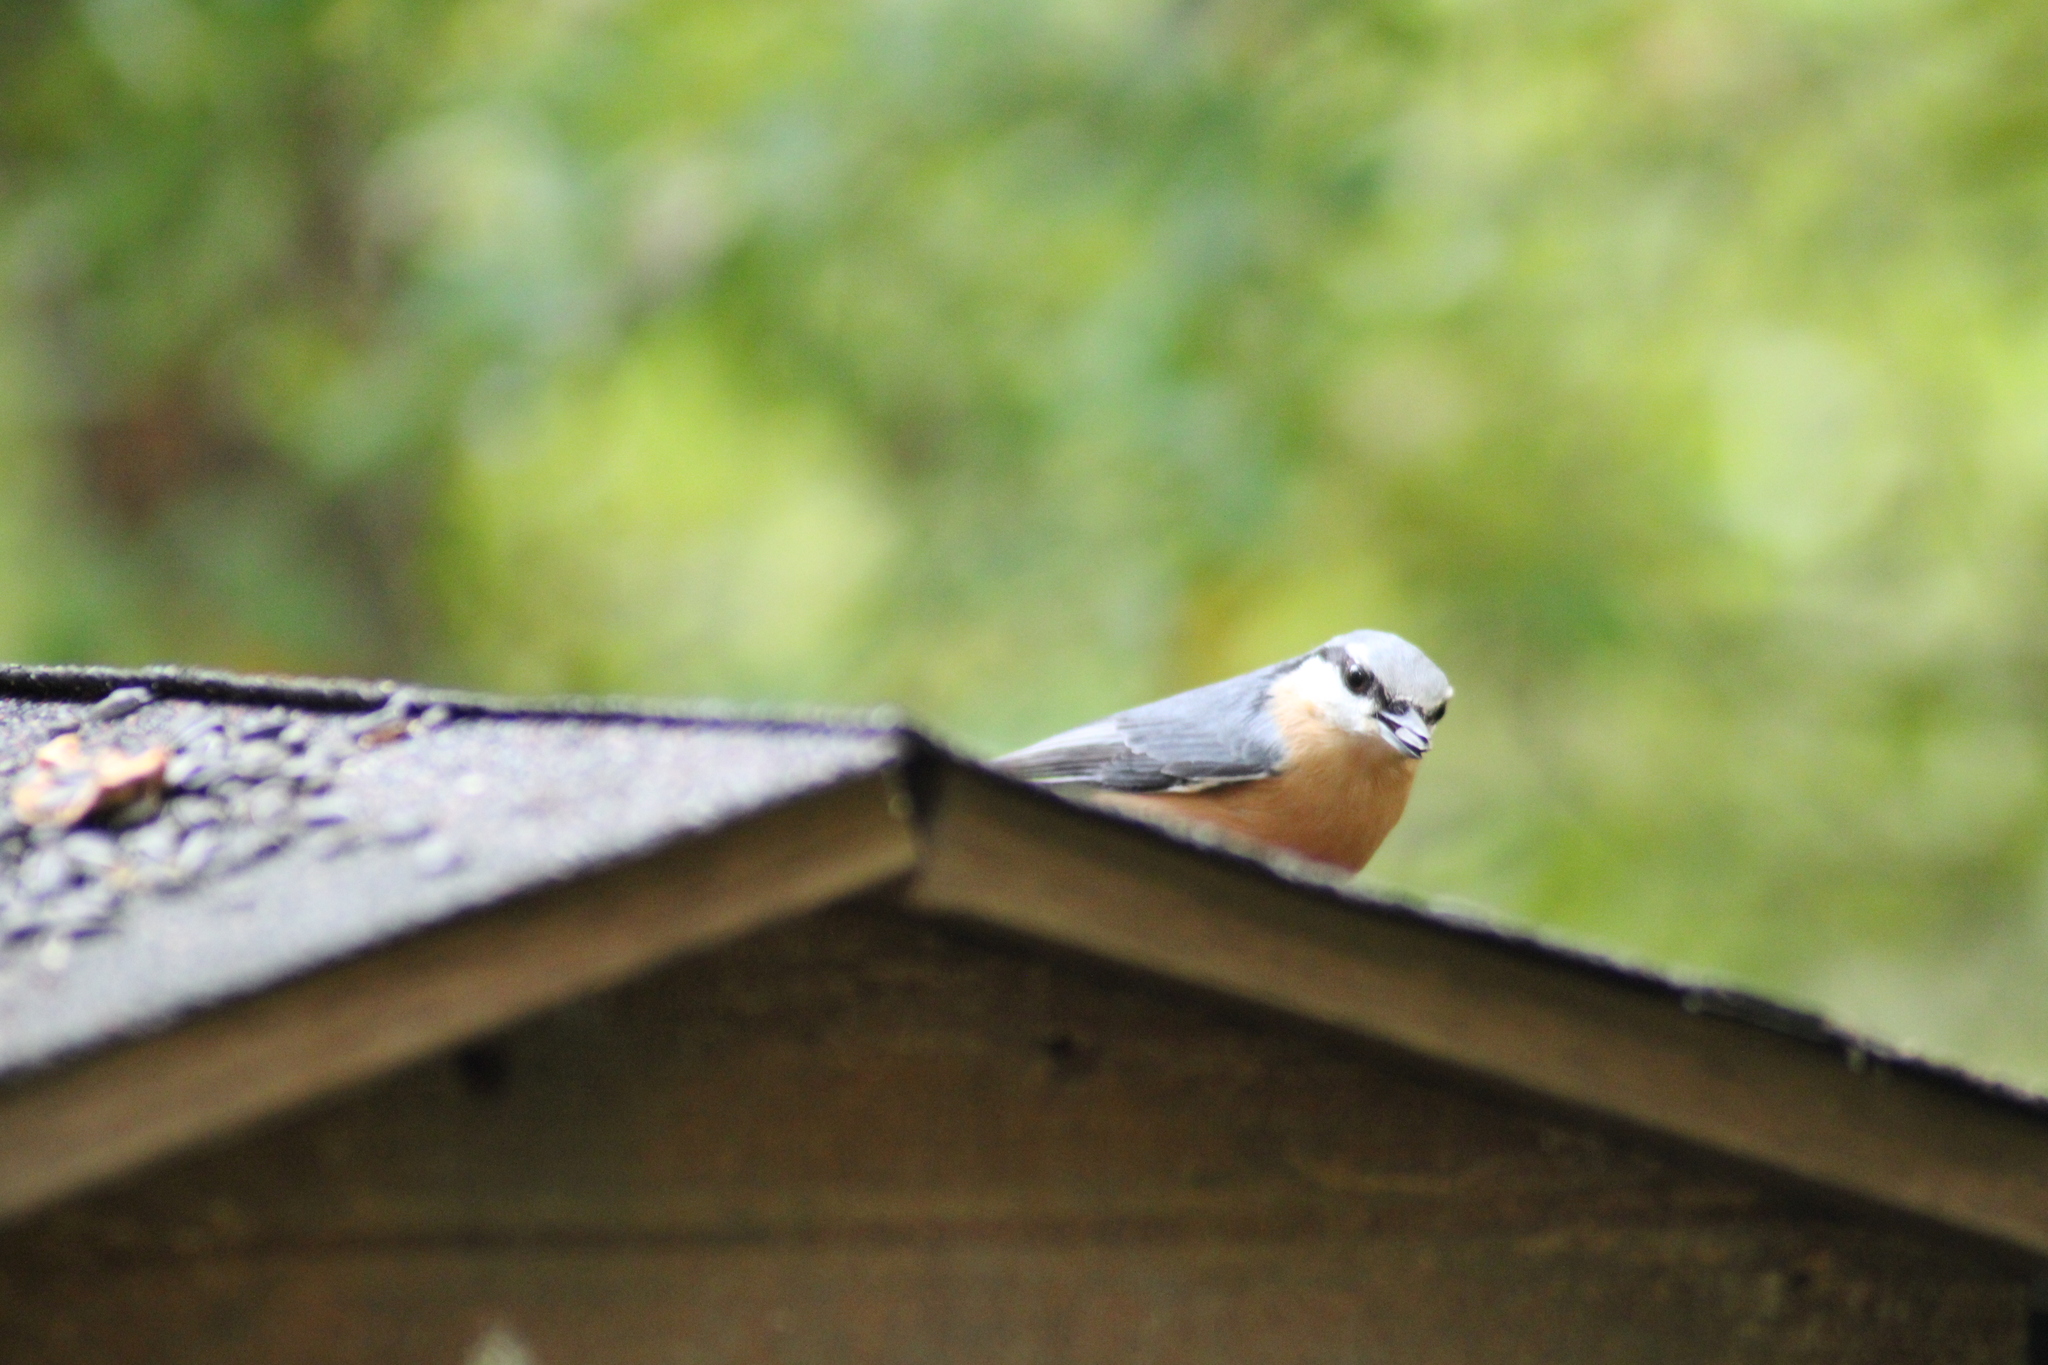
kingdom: Animalia
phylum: Chordata
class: Aves
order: Passeriformes
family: Sittidae
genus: Sitta
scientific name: Sitta europaea
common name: Eurasian nuthatch
